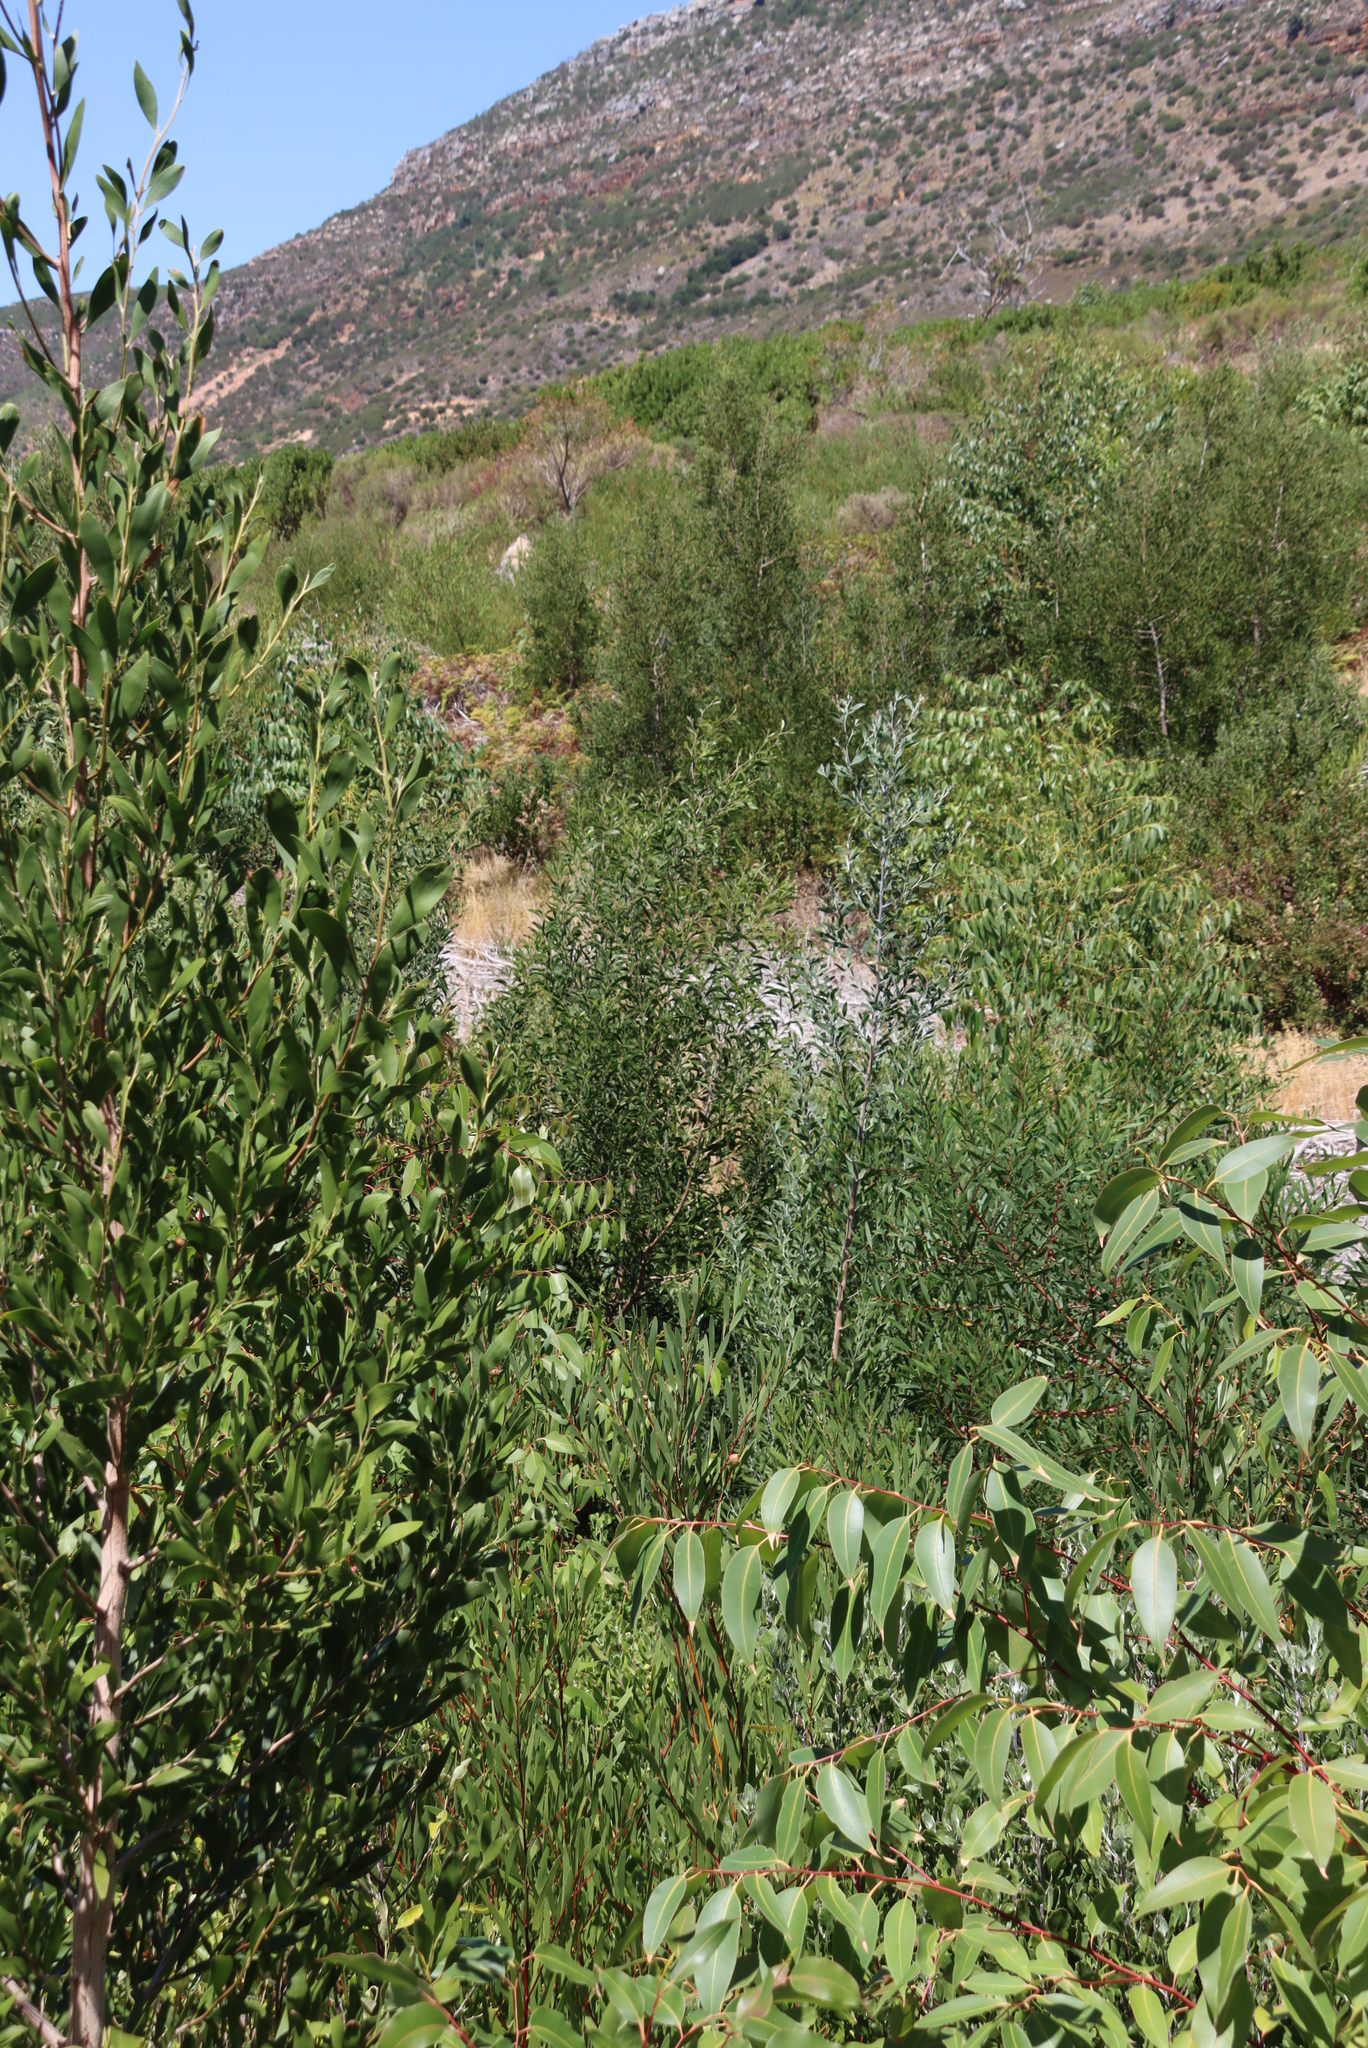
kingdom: Plantae
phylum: Tracheophyta
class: Magnoliopsida
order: Fabales
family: Fabaceae
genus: Acacia
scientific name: Acacia melanoxylon
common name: Blackwood
